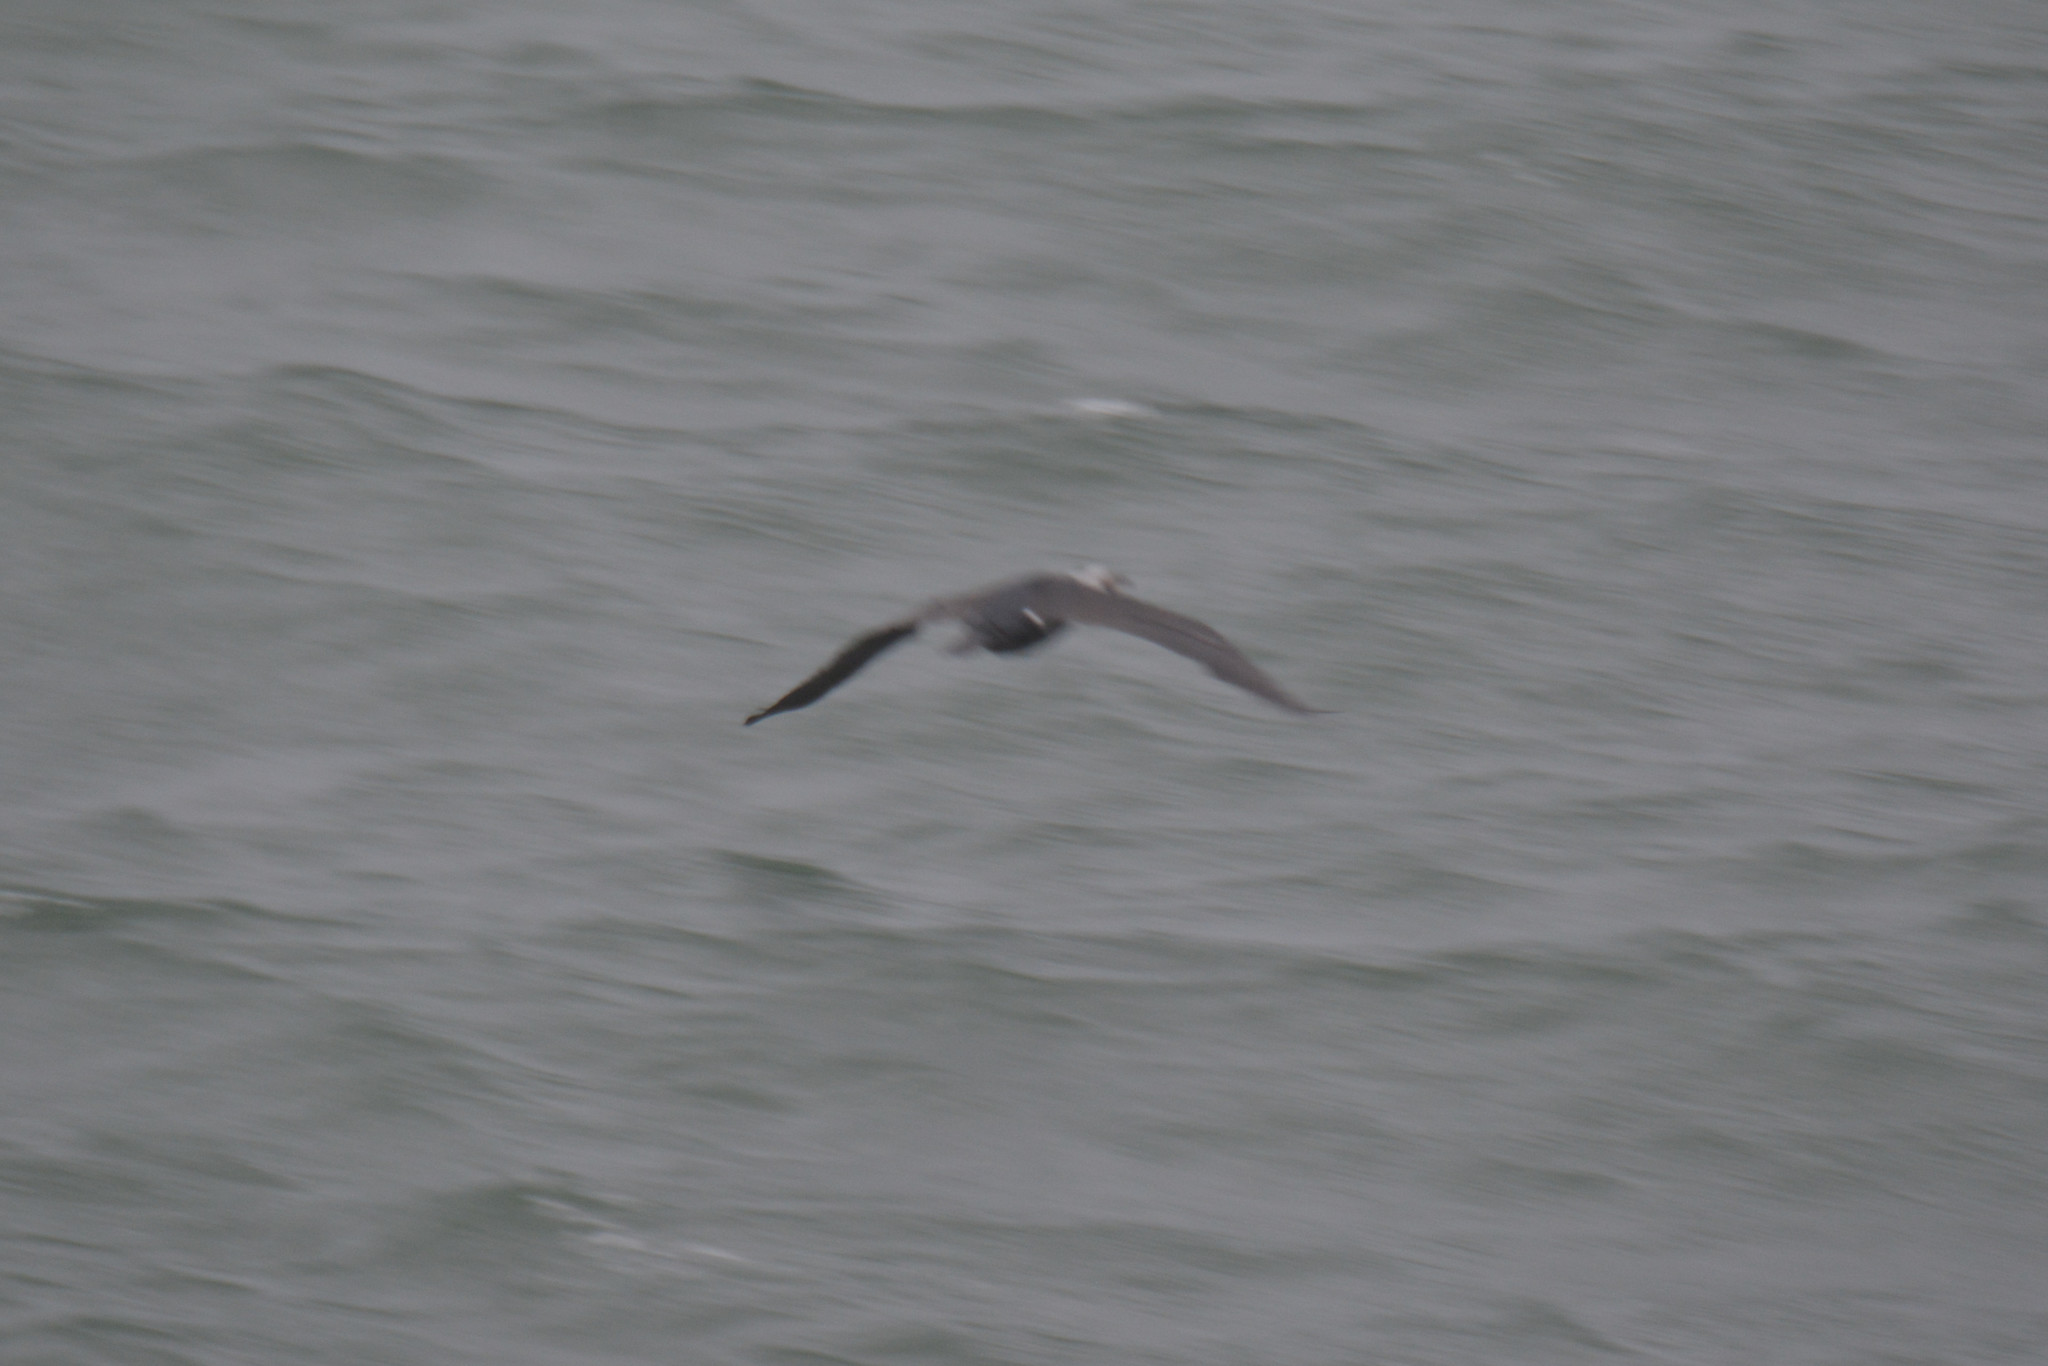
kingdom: Animalia
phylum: Chordata
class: Aves
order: Suliformes
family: Phalacrocoracidae
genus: Phalacrocorax
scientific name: Phalacrocorax carbo
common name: Great cormorant
